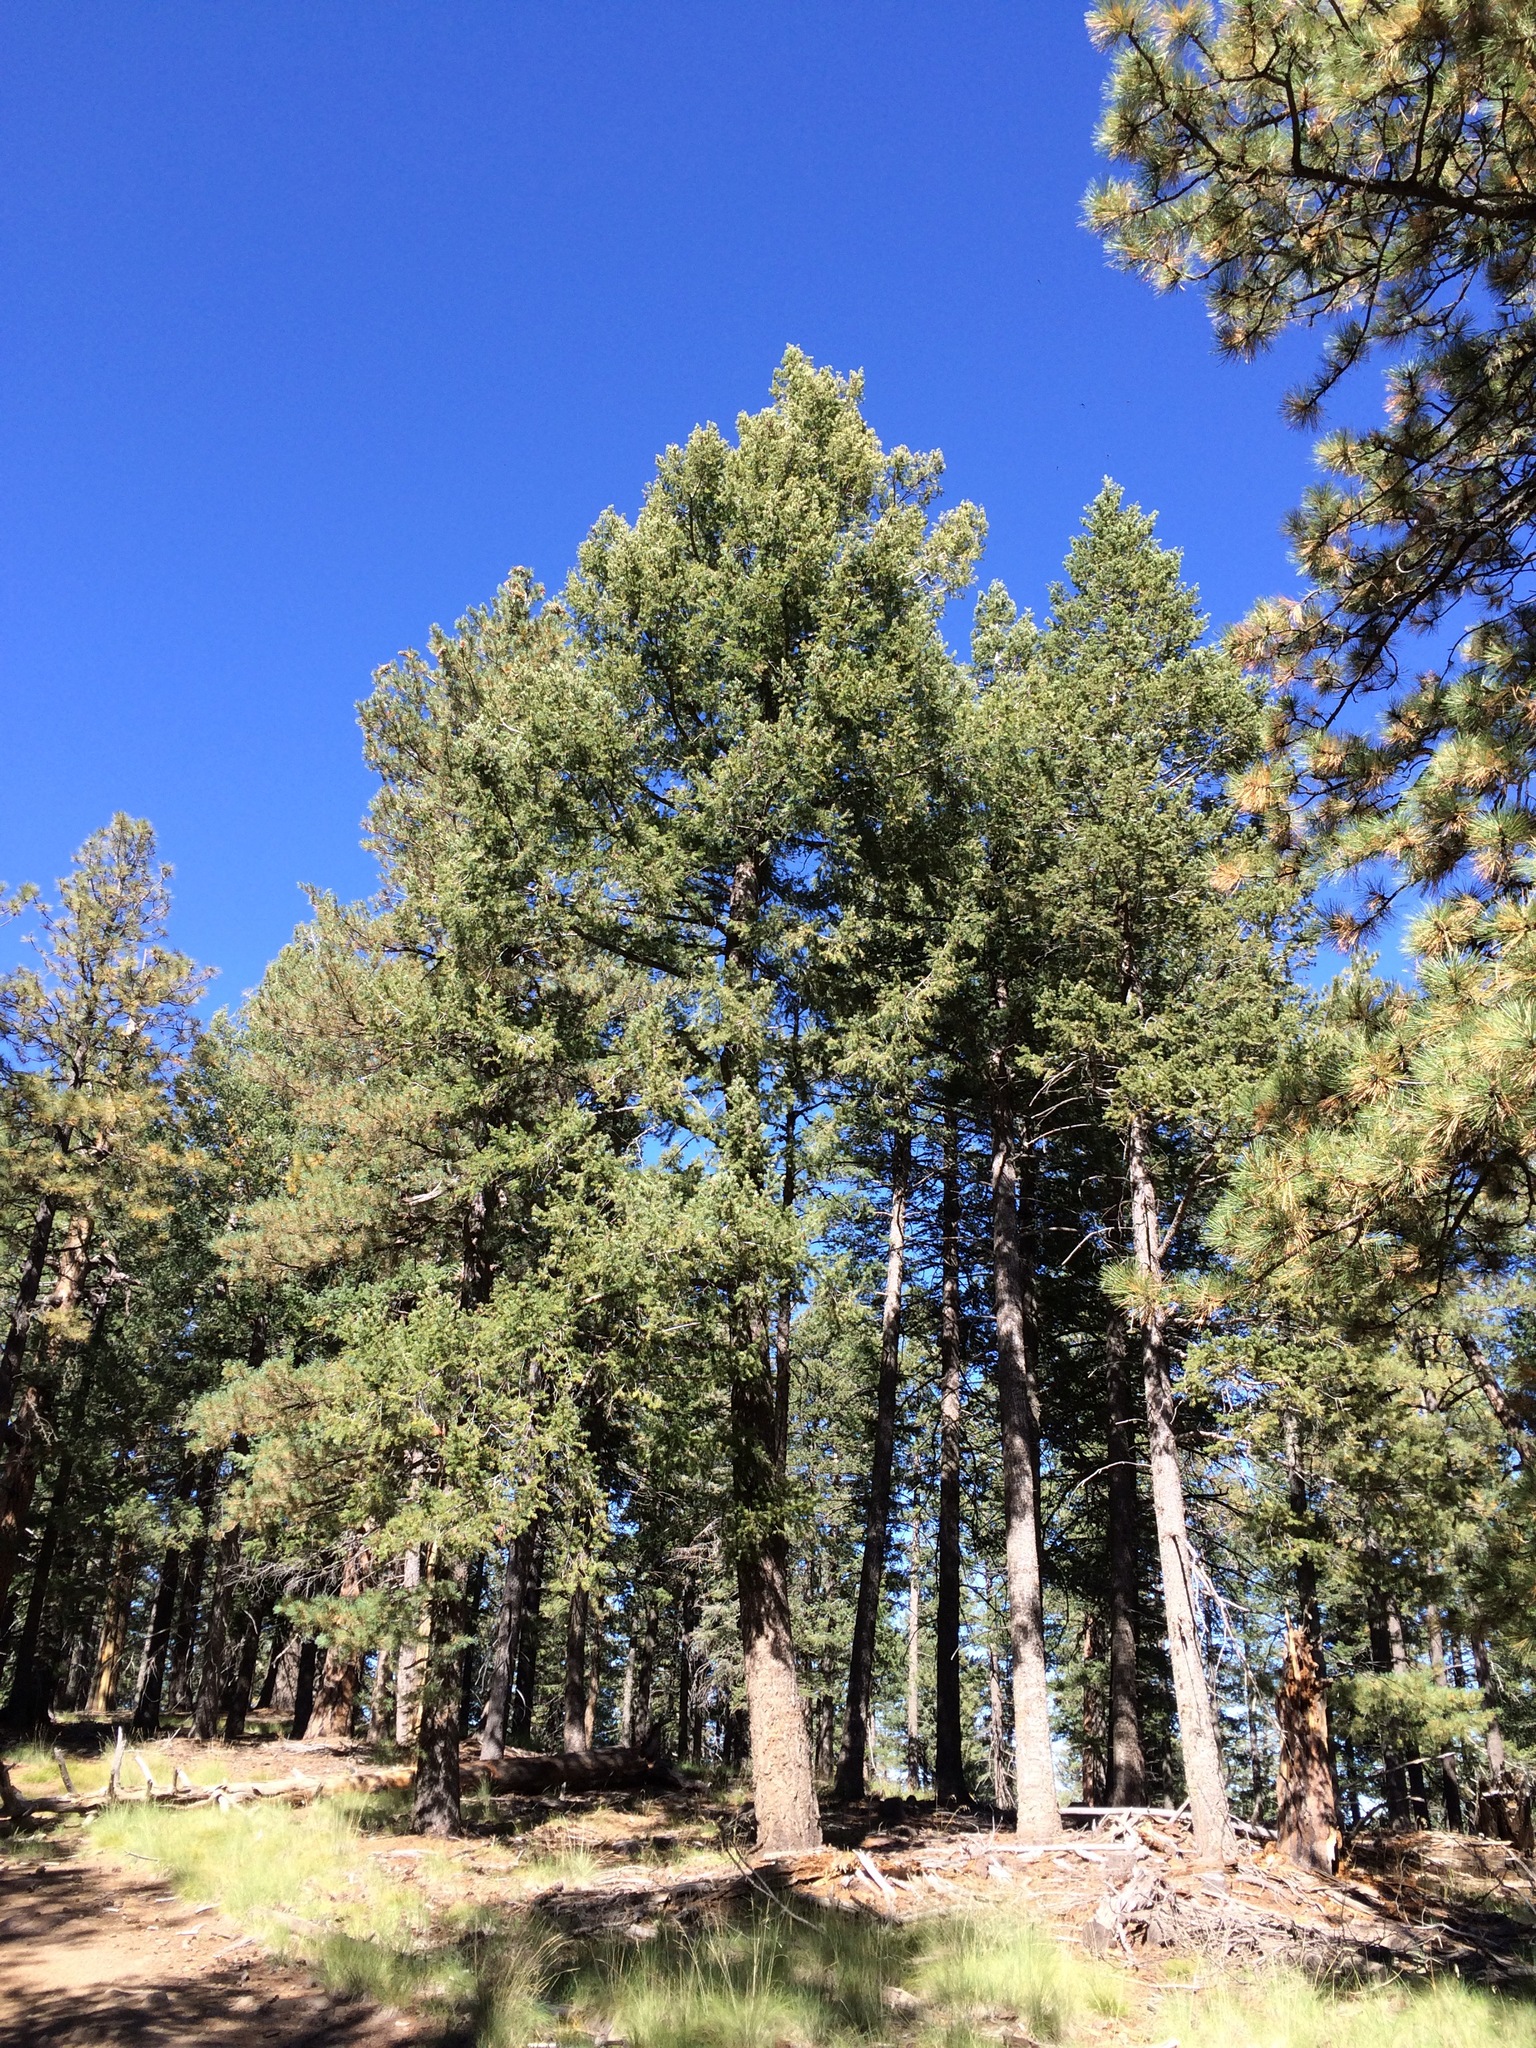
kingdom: Plantae
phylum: Tracheophyta
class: Pinopsida
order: Pinales
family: Pinaceae
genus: Pseudotsuga
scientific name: Pseudotsuga menziesii
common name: Douglas fir
